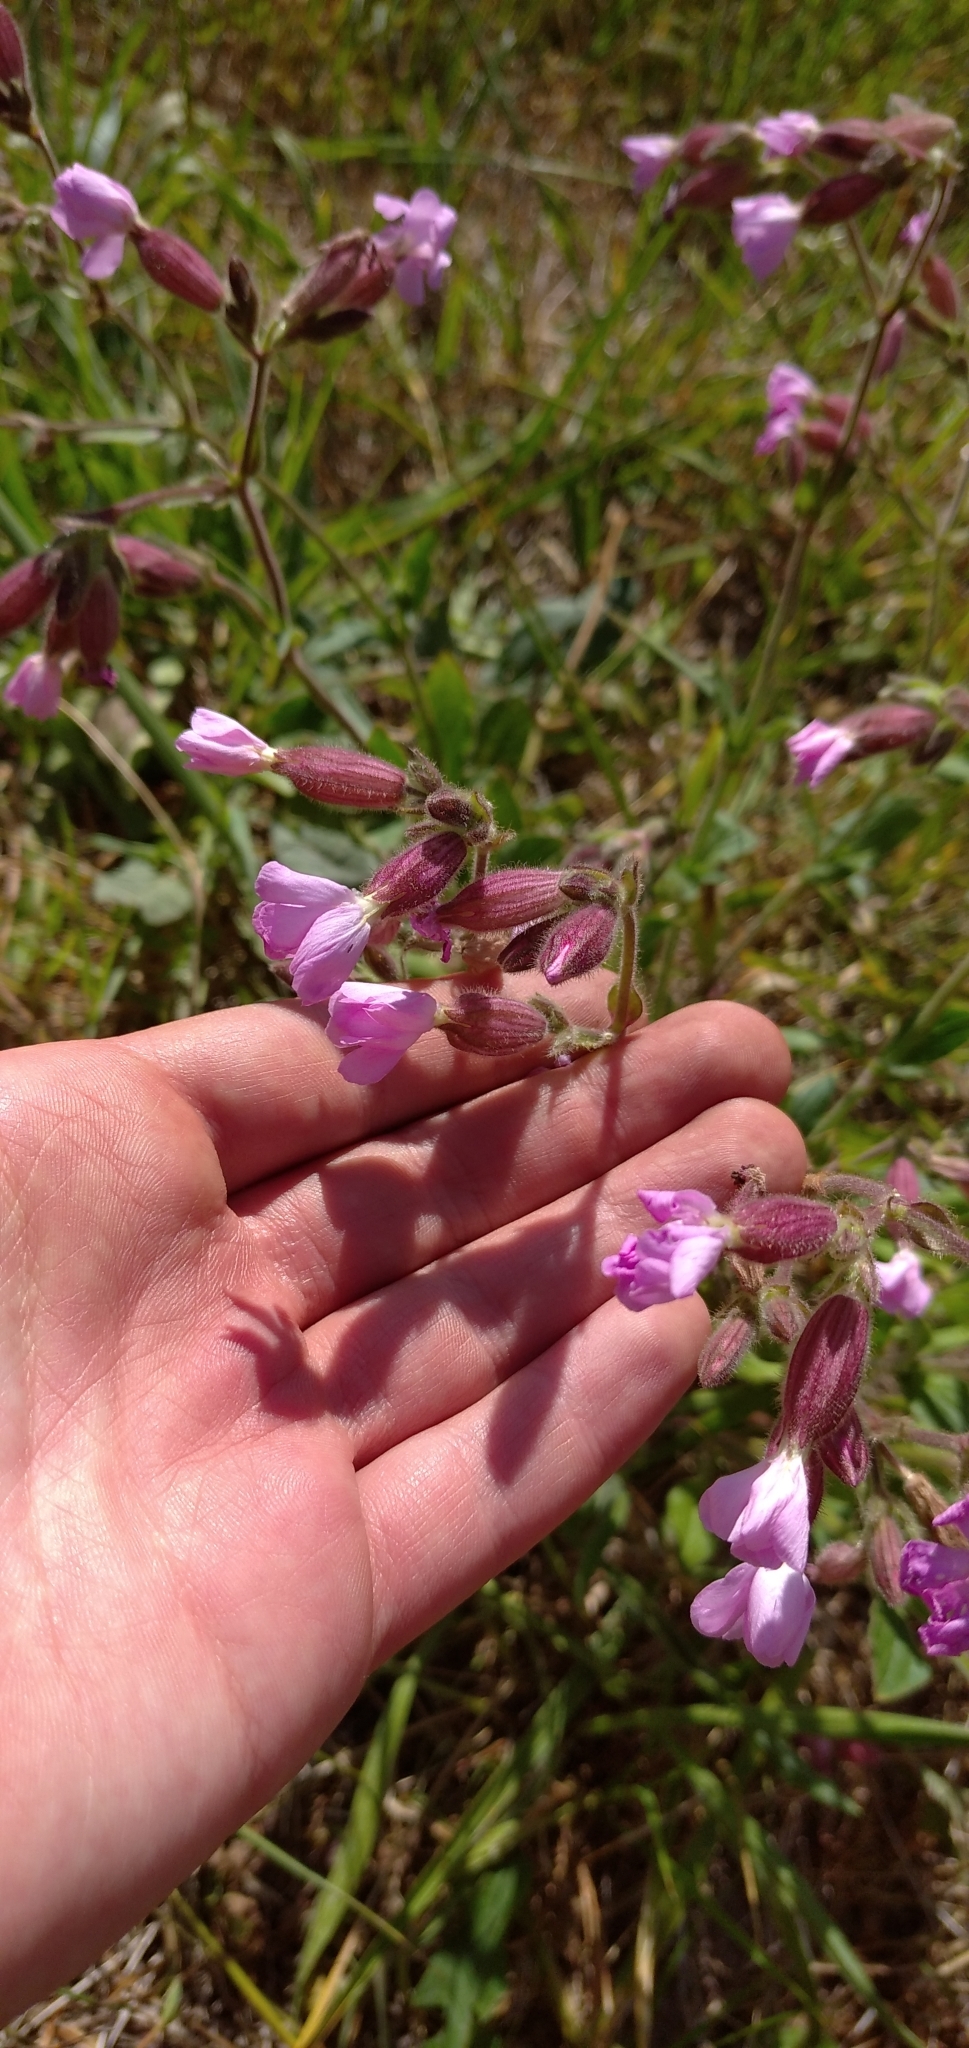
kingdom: Plantae
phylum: Tracheophyta
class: Magnoliopsida
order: Caryophyllales
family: Caryophyllaceae
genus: Silene
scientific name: Silene dioica
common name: Red campion
